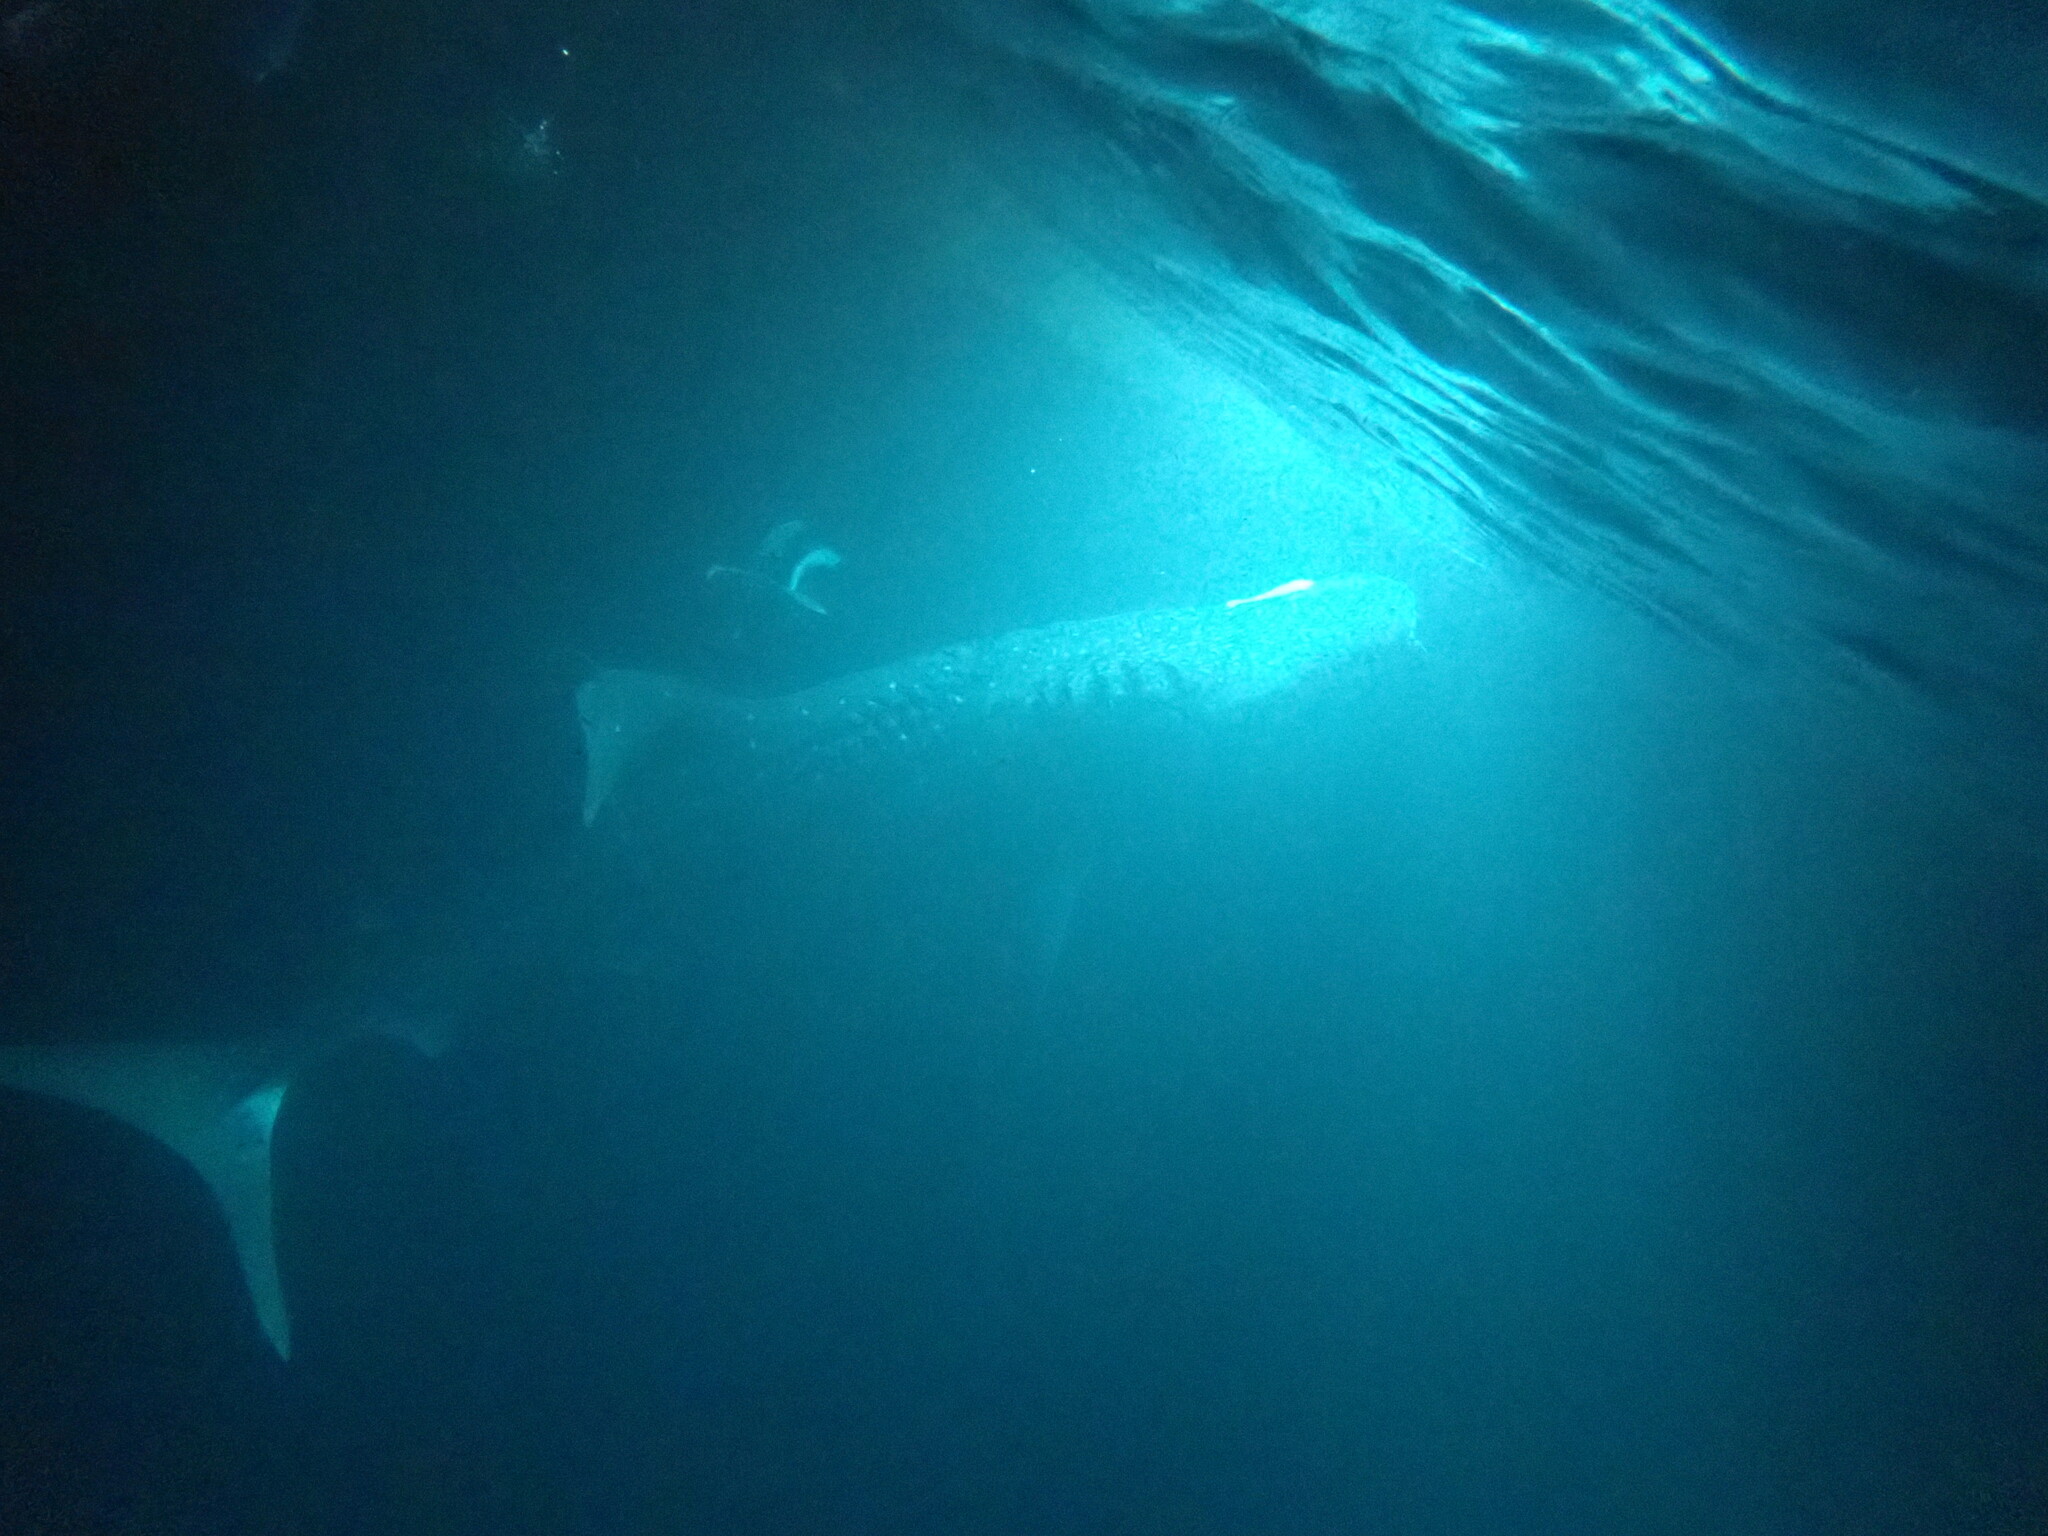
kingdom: Animalia
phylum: Chordata
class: Elasmobranchii
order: Orectolobiformes
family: Rhincodontidae
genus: Rhincodon
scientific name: Rhincodon typus
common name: Whale shark
